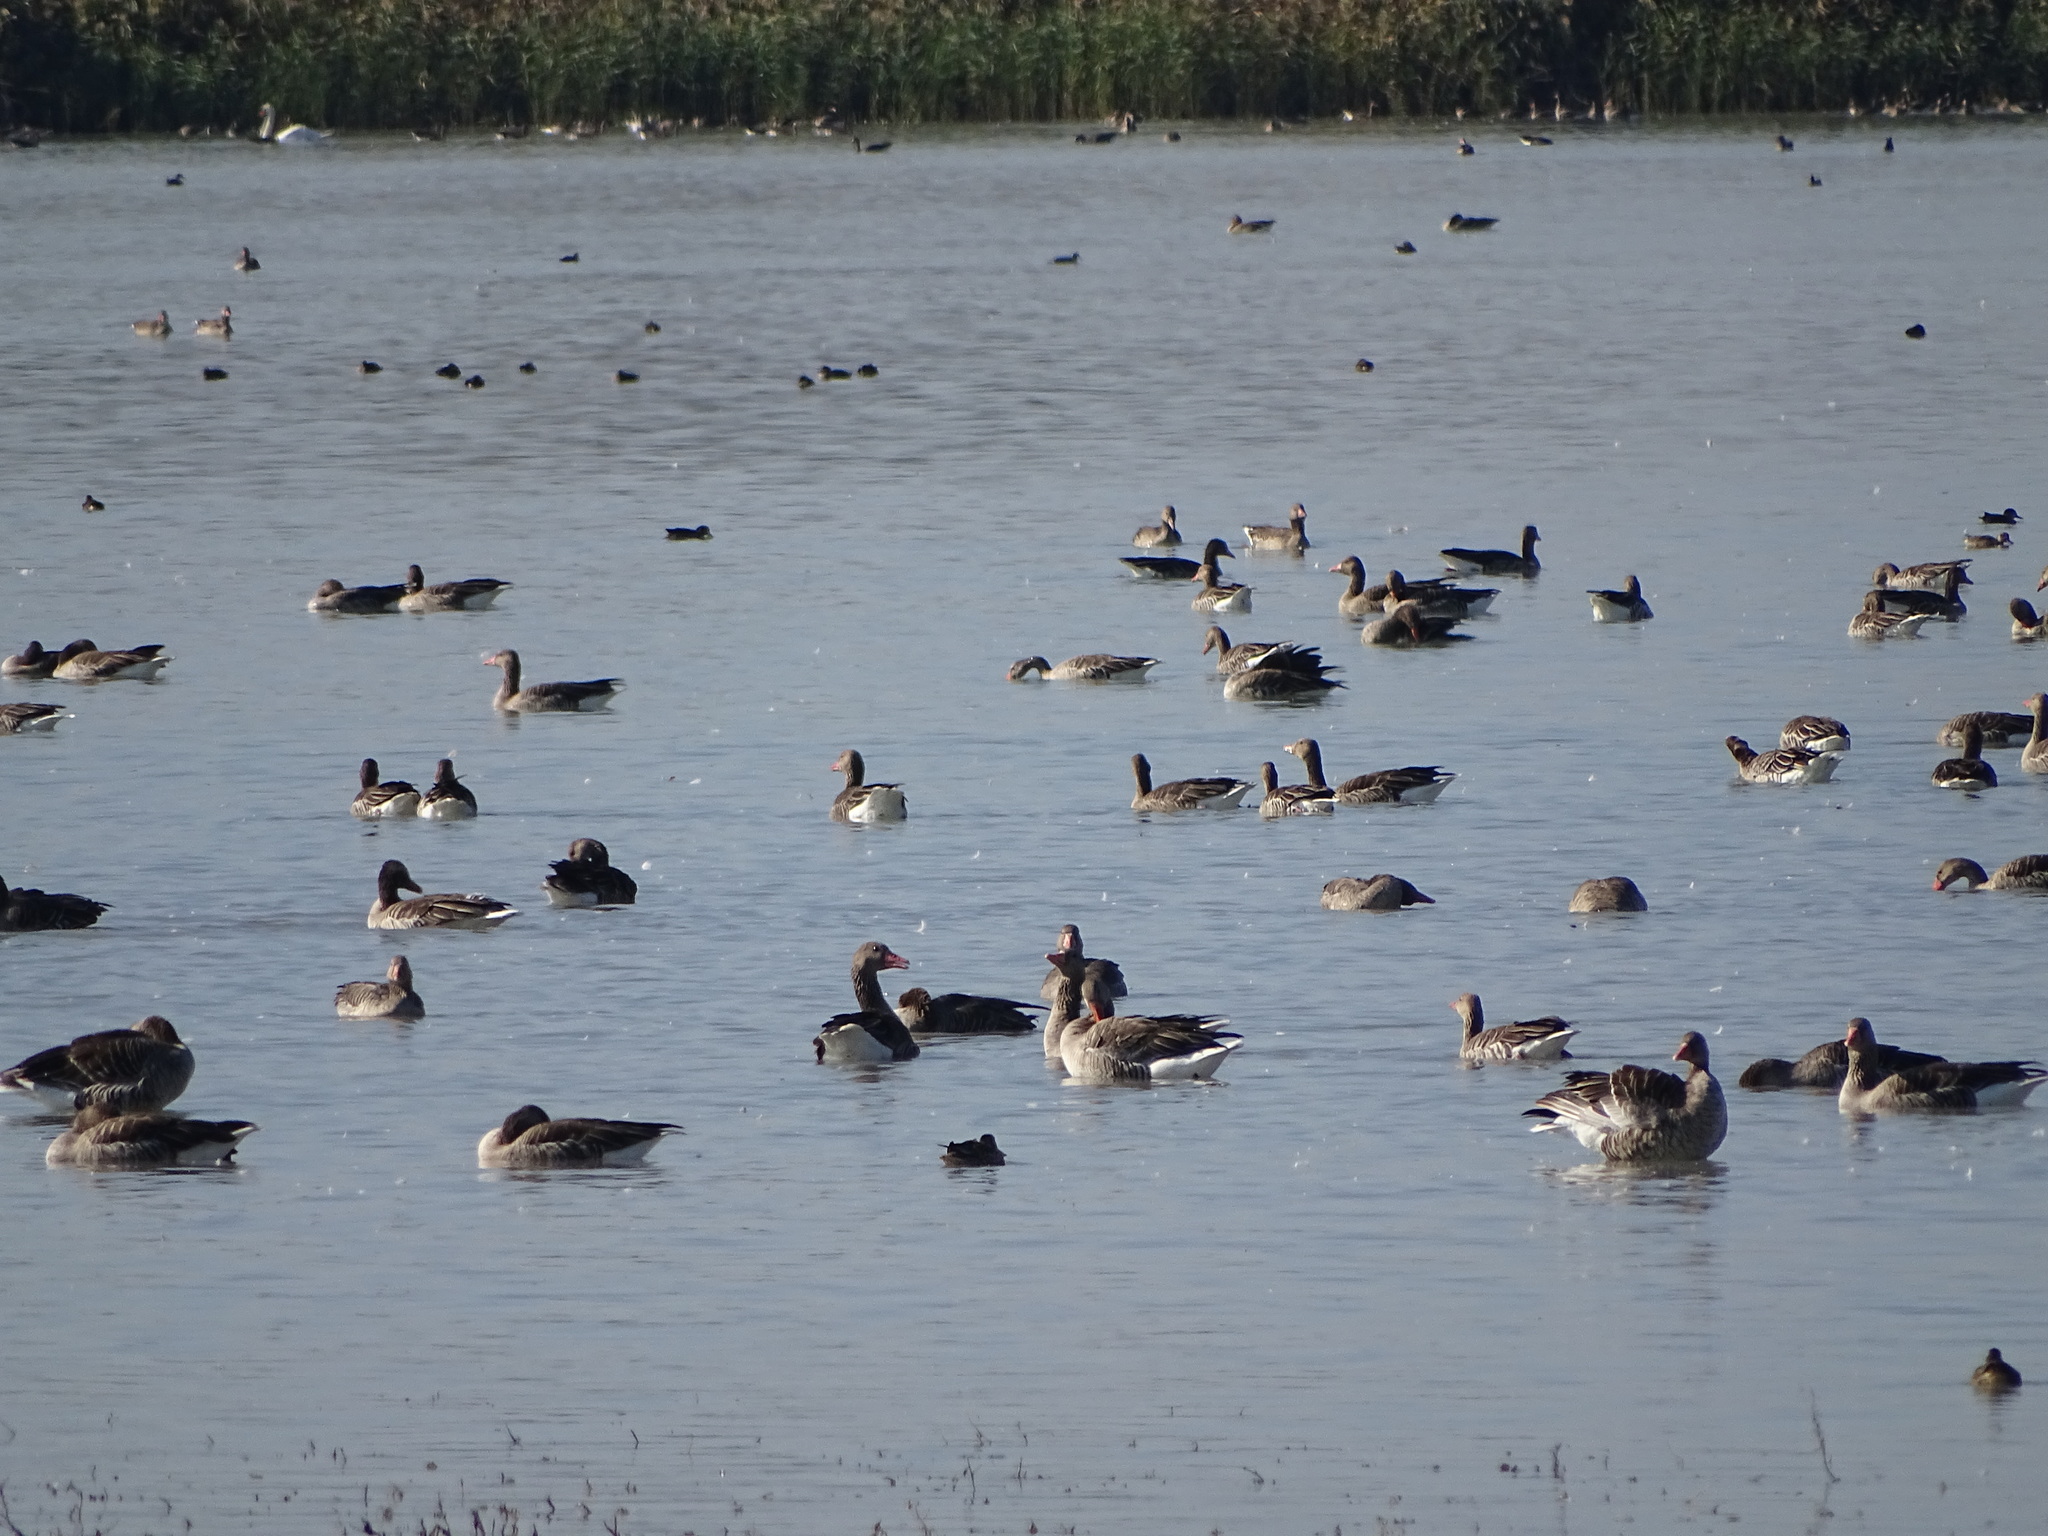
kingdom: Animalia
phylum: Chordata
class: Aves
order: Anseriformes
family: Anatidae
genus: Anser
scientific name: Anser anser
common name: Greylag goose
